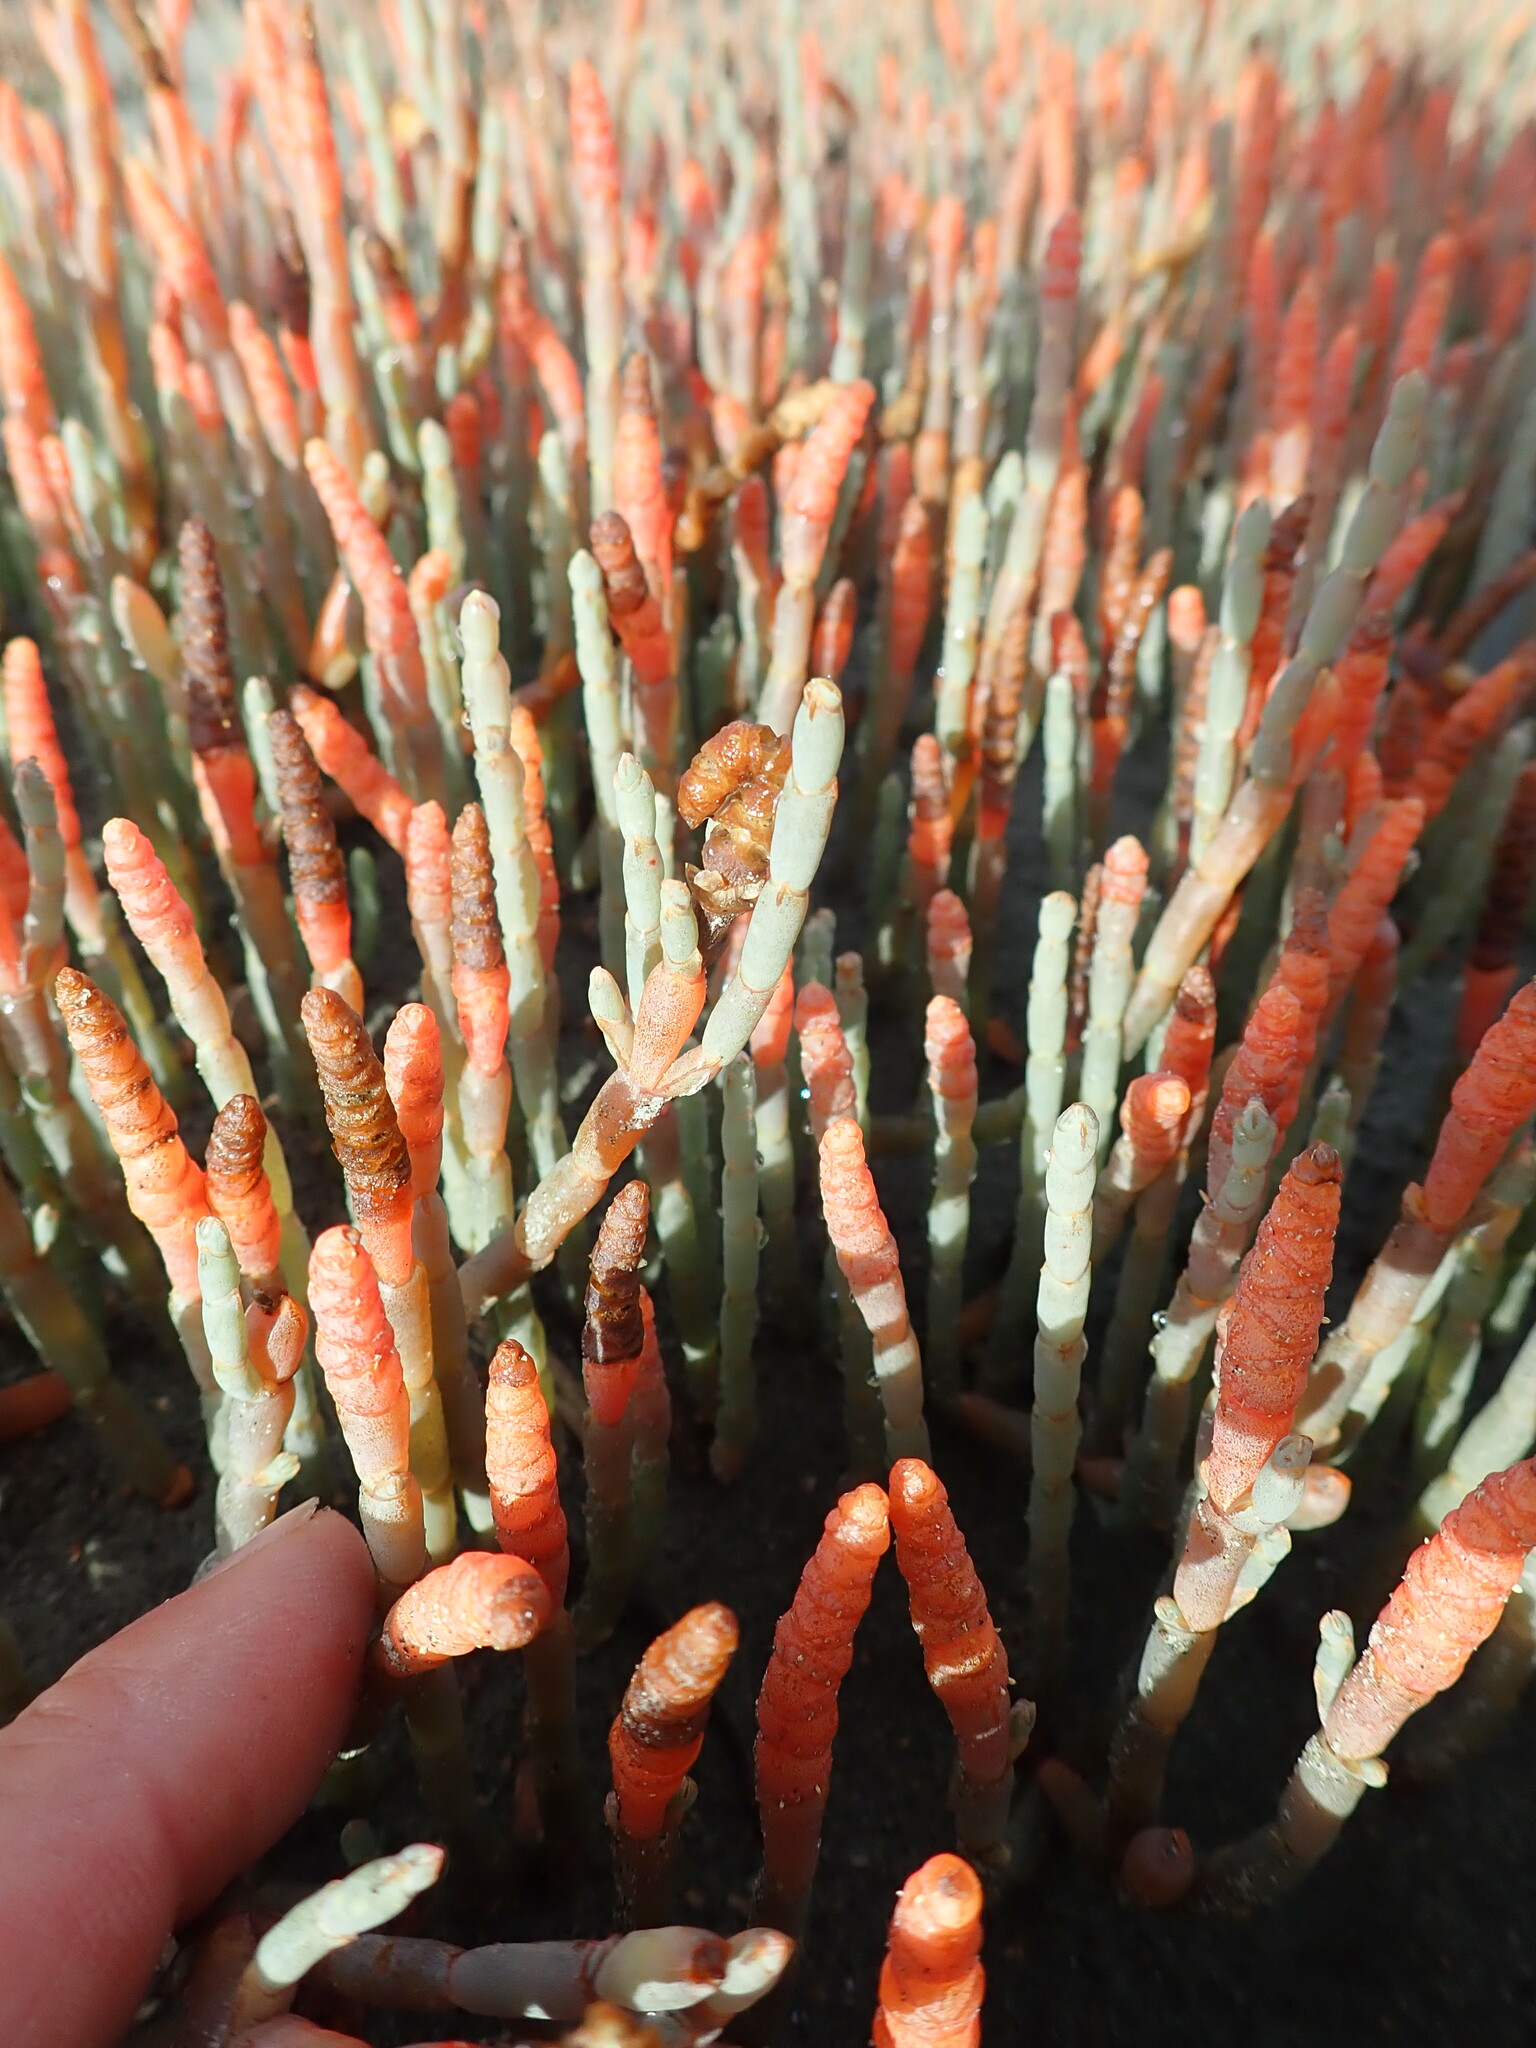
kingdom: Plantae
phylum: Tracheophyta
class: Magnoliopsida
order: Caryophyllales
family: Amaranthaceae
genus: Salicornia
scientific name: Salicornia quinqueflora
